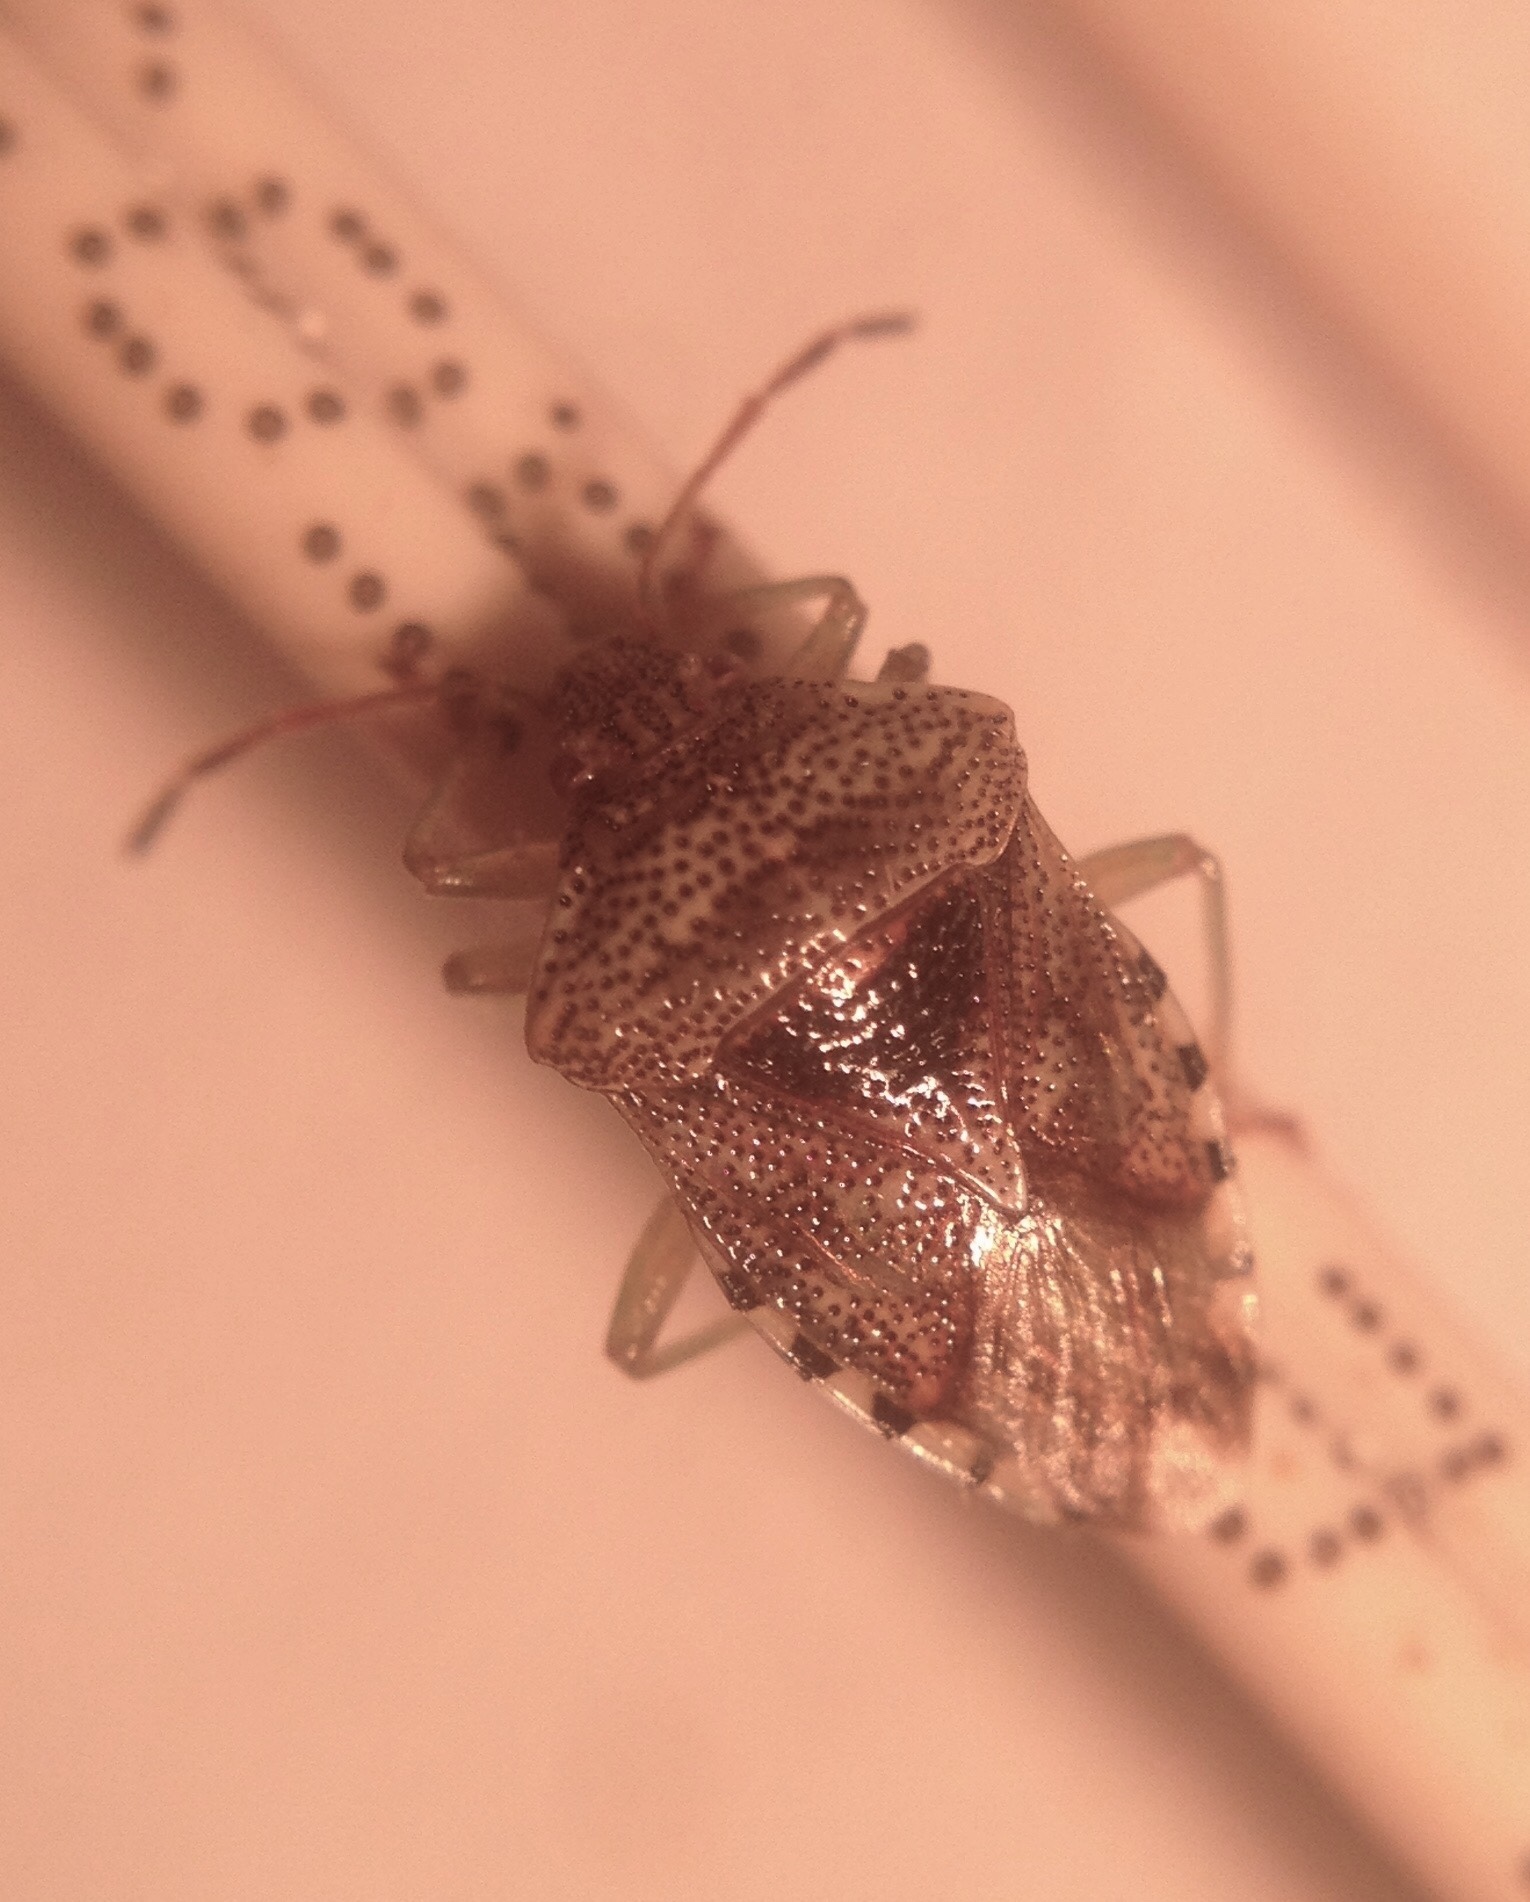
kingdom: Animalia
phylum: Arthropoda
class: Insecta
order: Hemiptera
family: Acanthosomatidae
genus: Elasmucha
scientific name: Elasmucha grisea
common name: Parent bug
